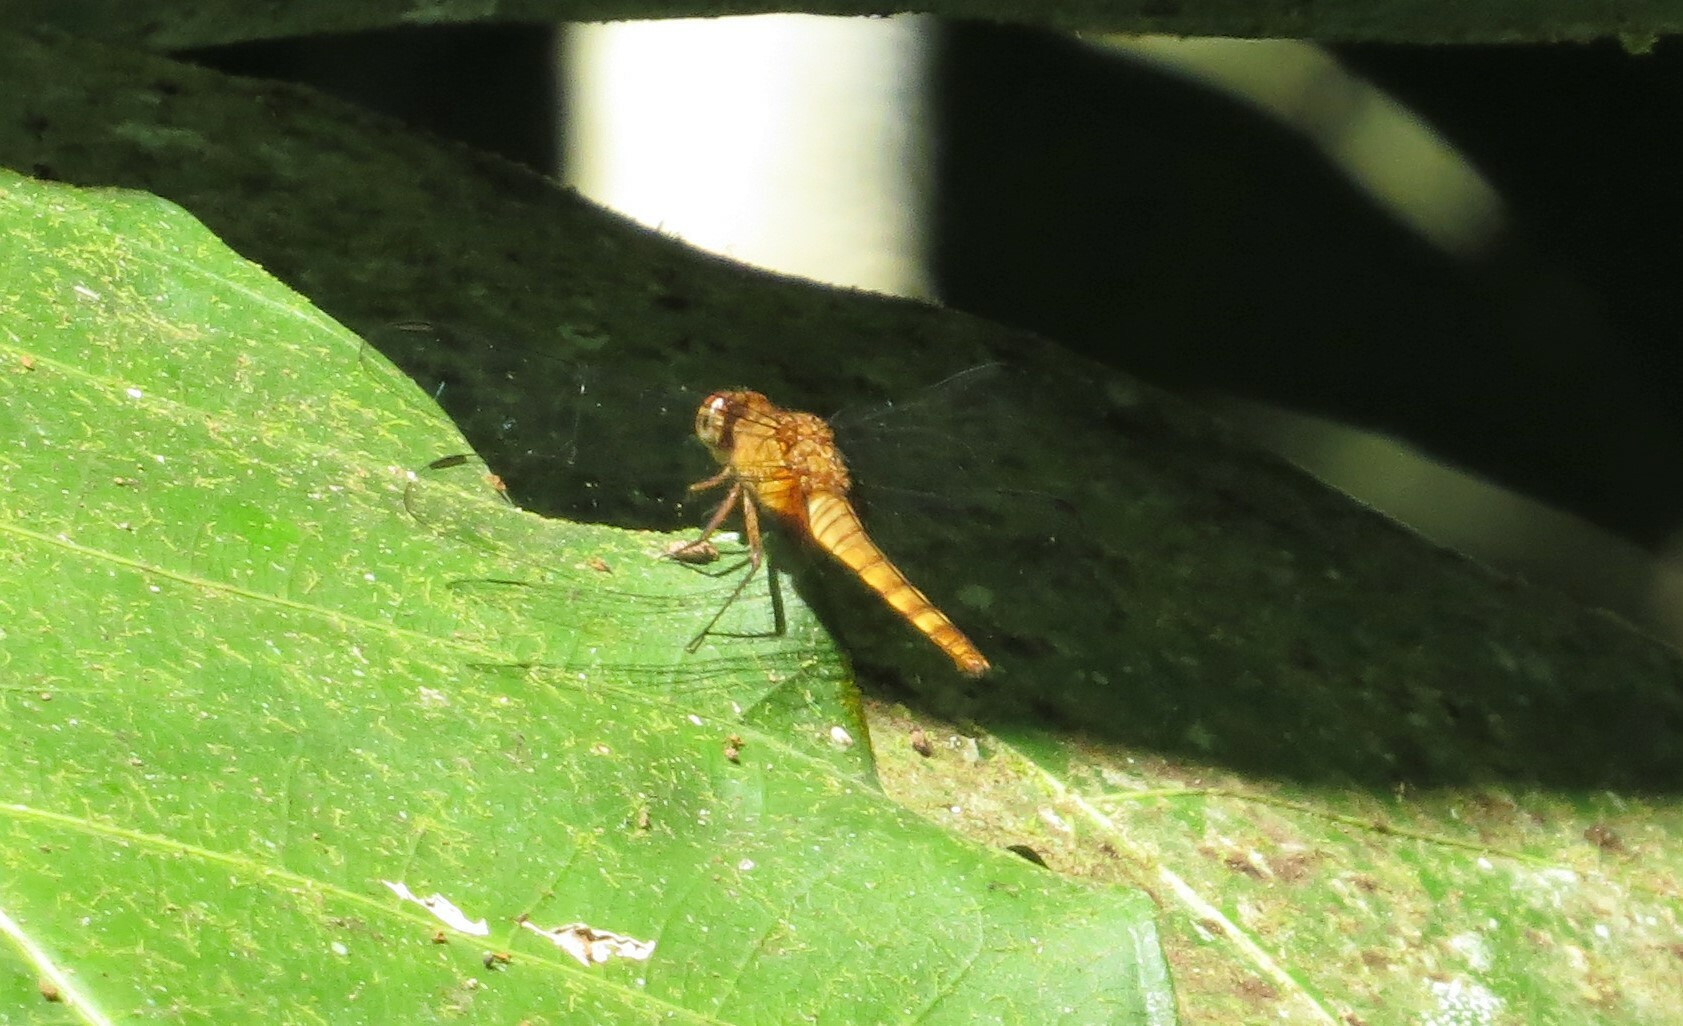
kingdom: Animalia
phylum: Arthropoda
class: Insecta
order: Odonata
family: Libellulidae
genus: Erythemis
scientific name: Erythemis mithroides
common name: Claret pondhawk
